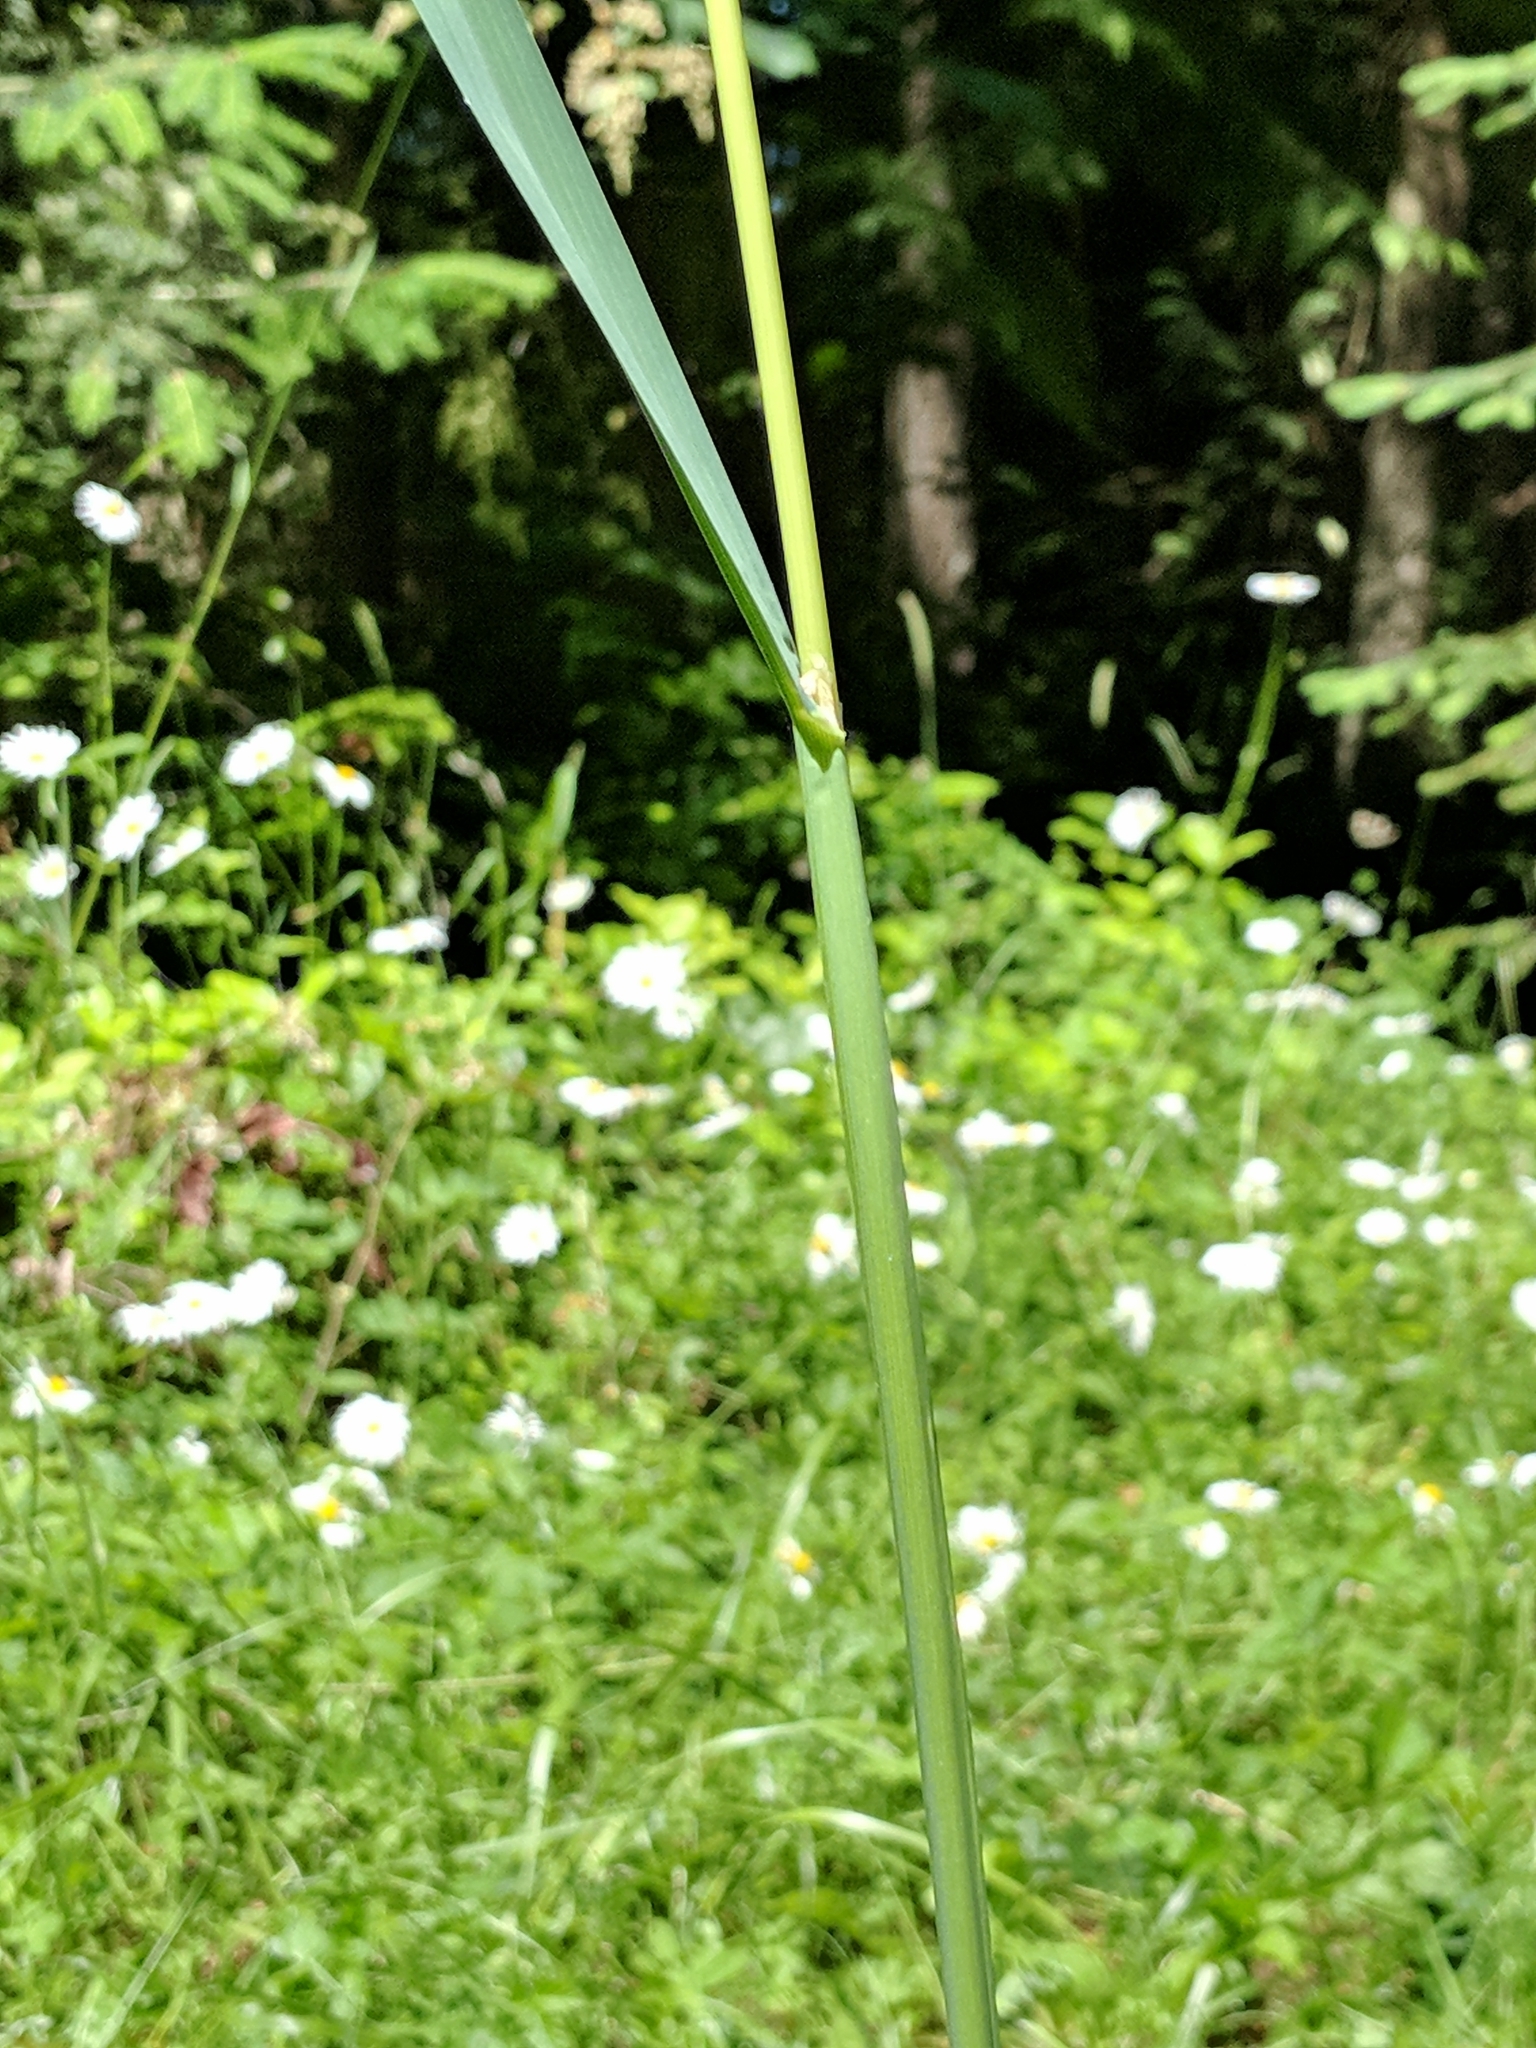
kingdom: Plantae
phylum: Tracheophyta
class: Liliopsida
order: Poales
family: Poaceae
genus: Dactylis
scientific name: Dactylis glomerata
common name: Orchardgrass
